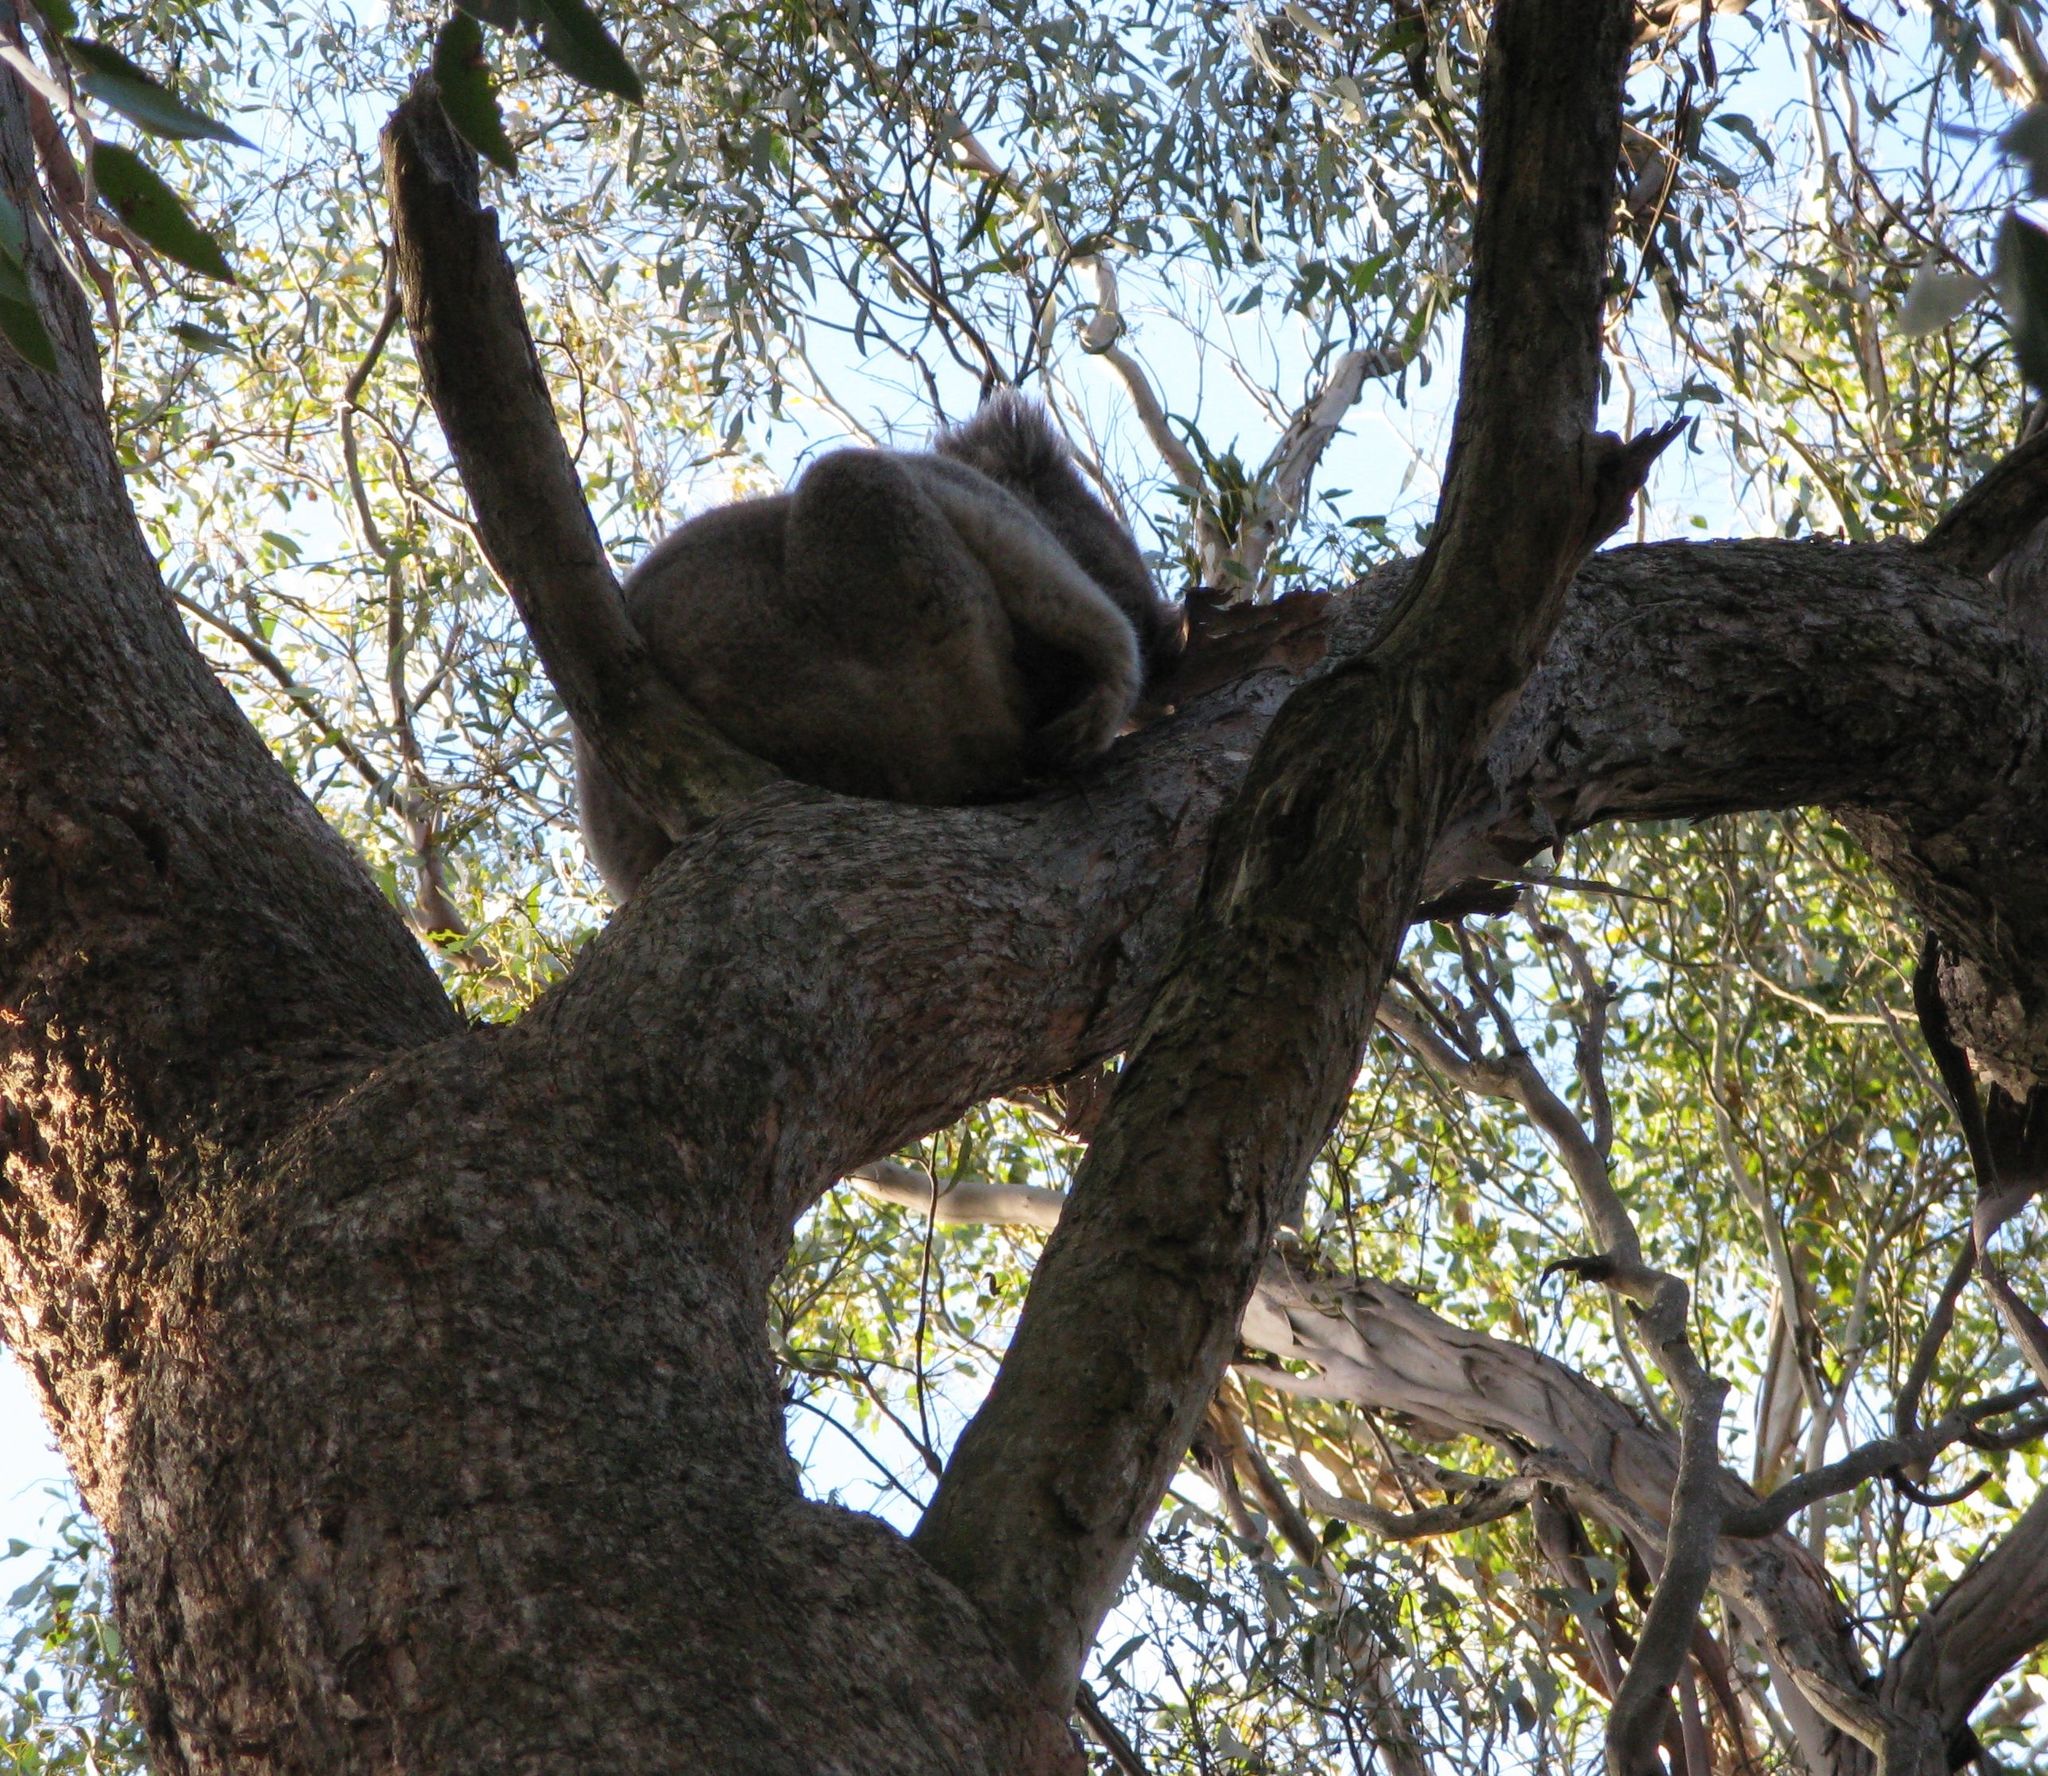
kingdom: Animalia
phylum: Chordata
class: Mammalia
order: Diprotodontia
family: Phascolarctidae
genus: Phascolarctos
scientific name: Phascolarctos cinereus
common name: Koala
